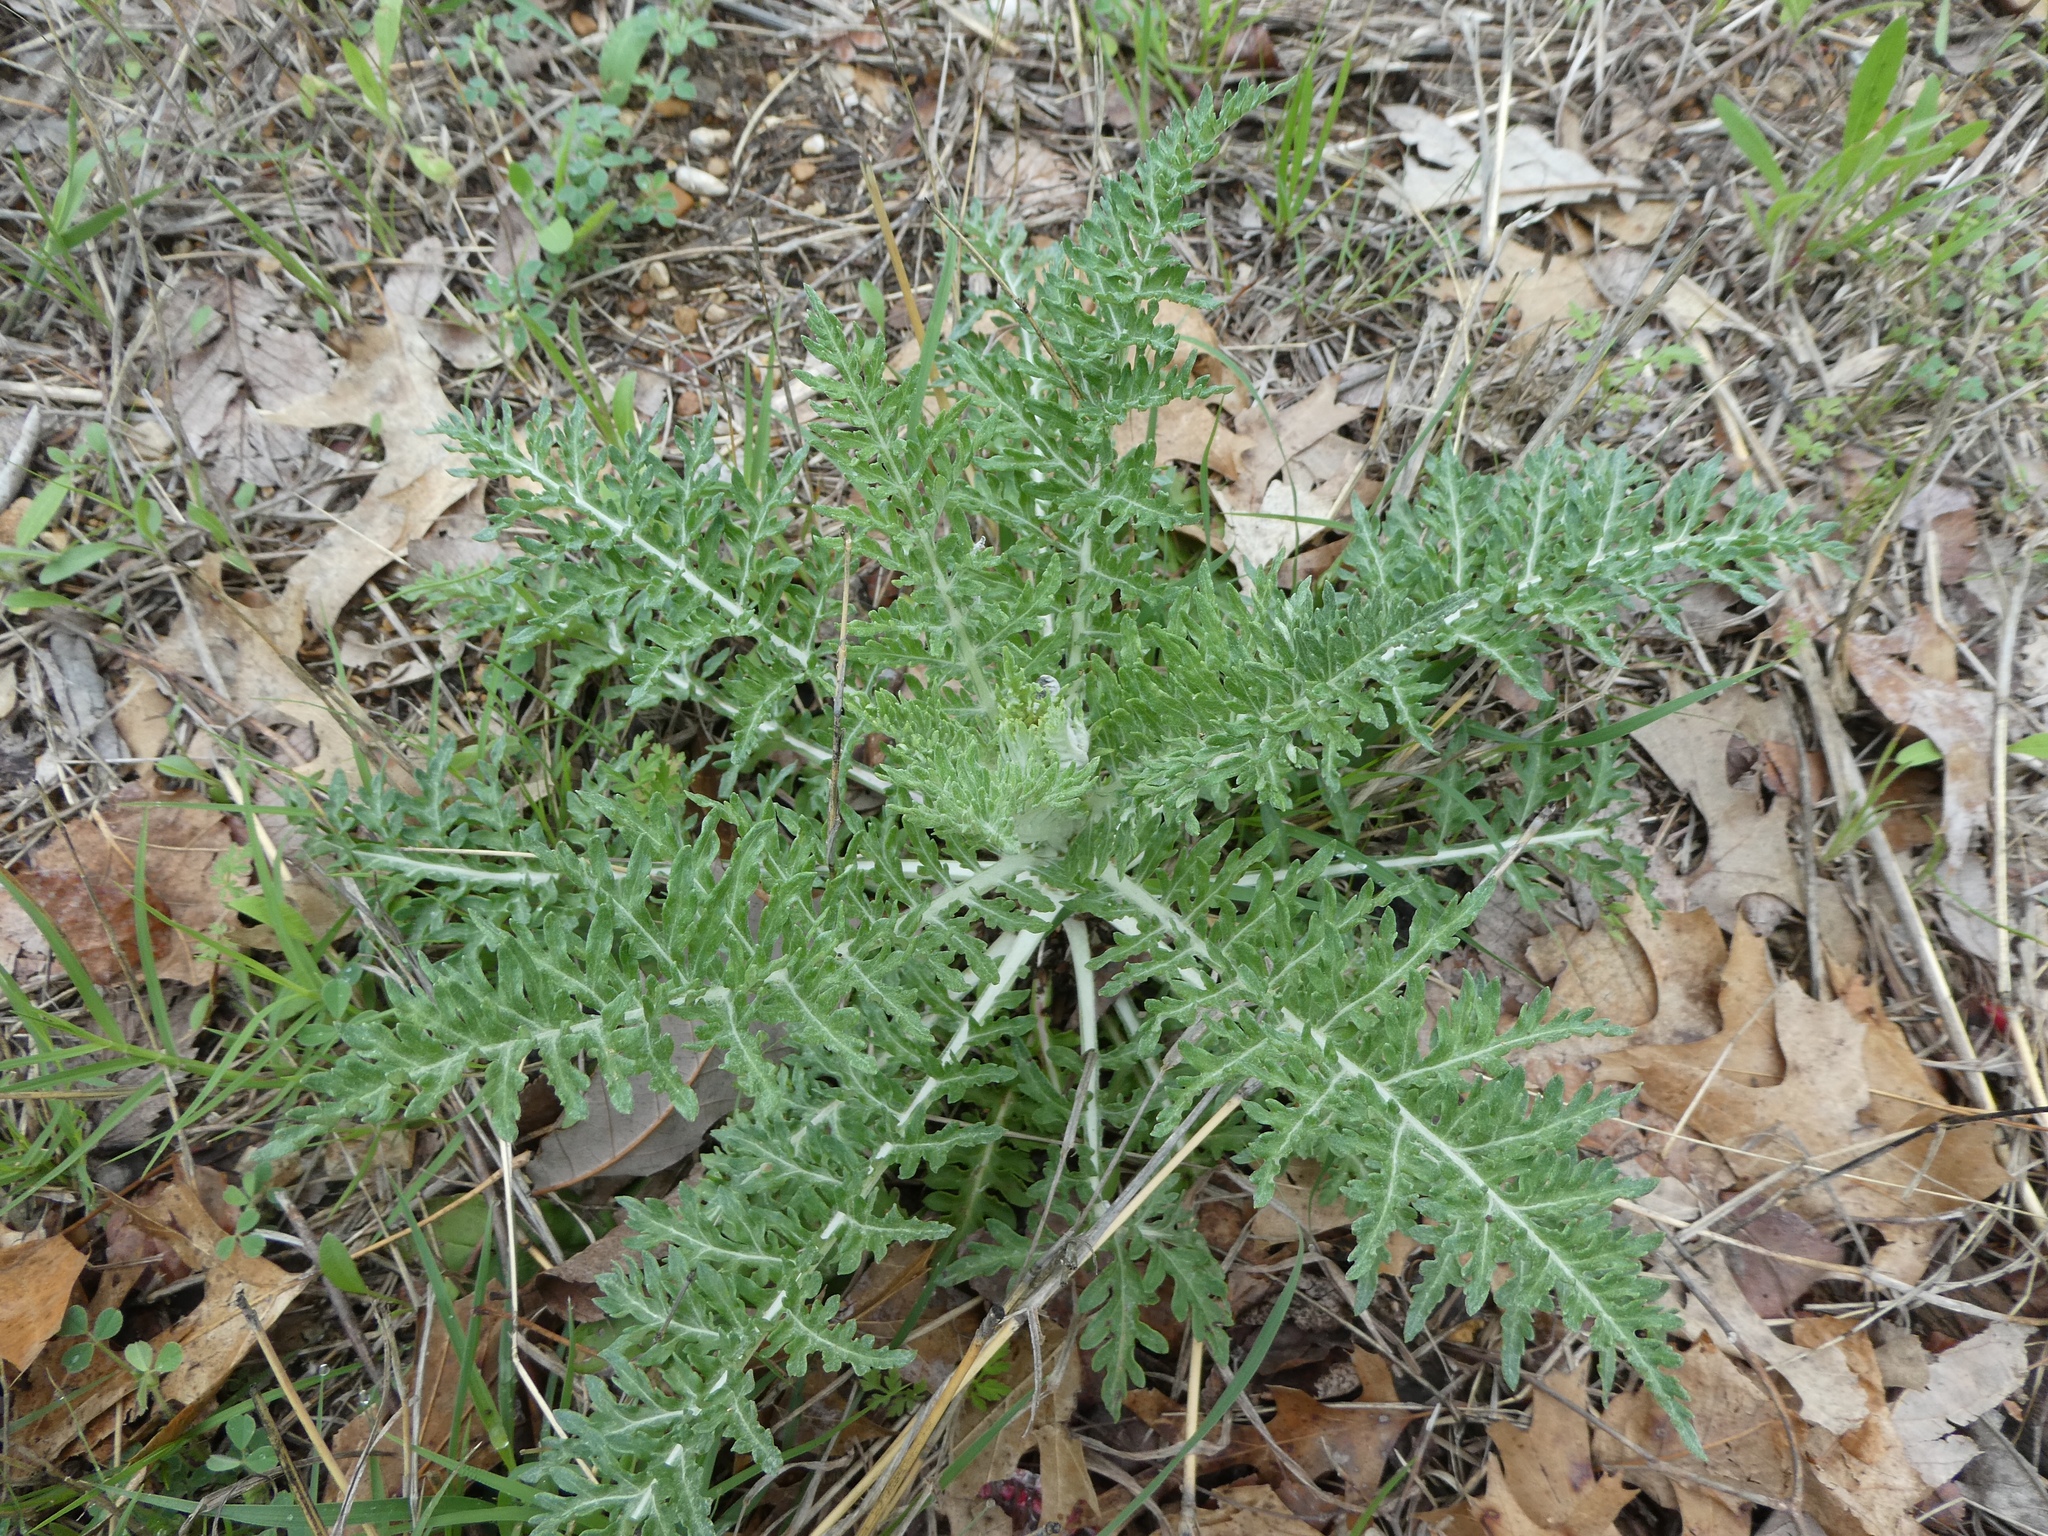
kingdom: Plantae
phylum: Tracheophyta
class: Magnoliopsida
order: Asterales
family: Asteraceae
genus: Hymenopappus
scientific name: Hymenopappus scabiosaeus
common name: Carolina woollywhite
